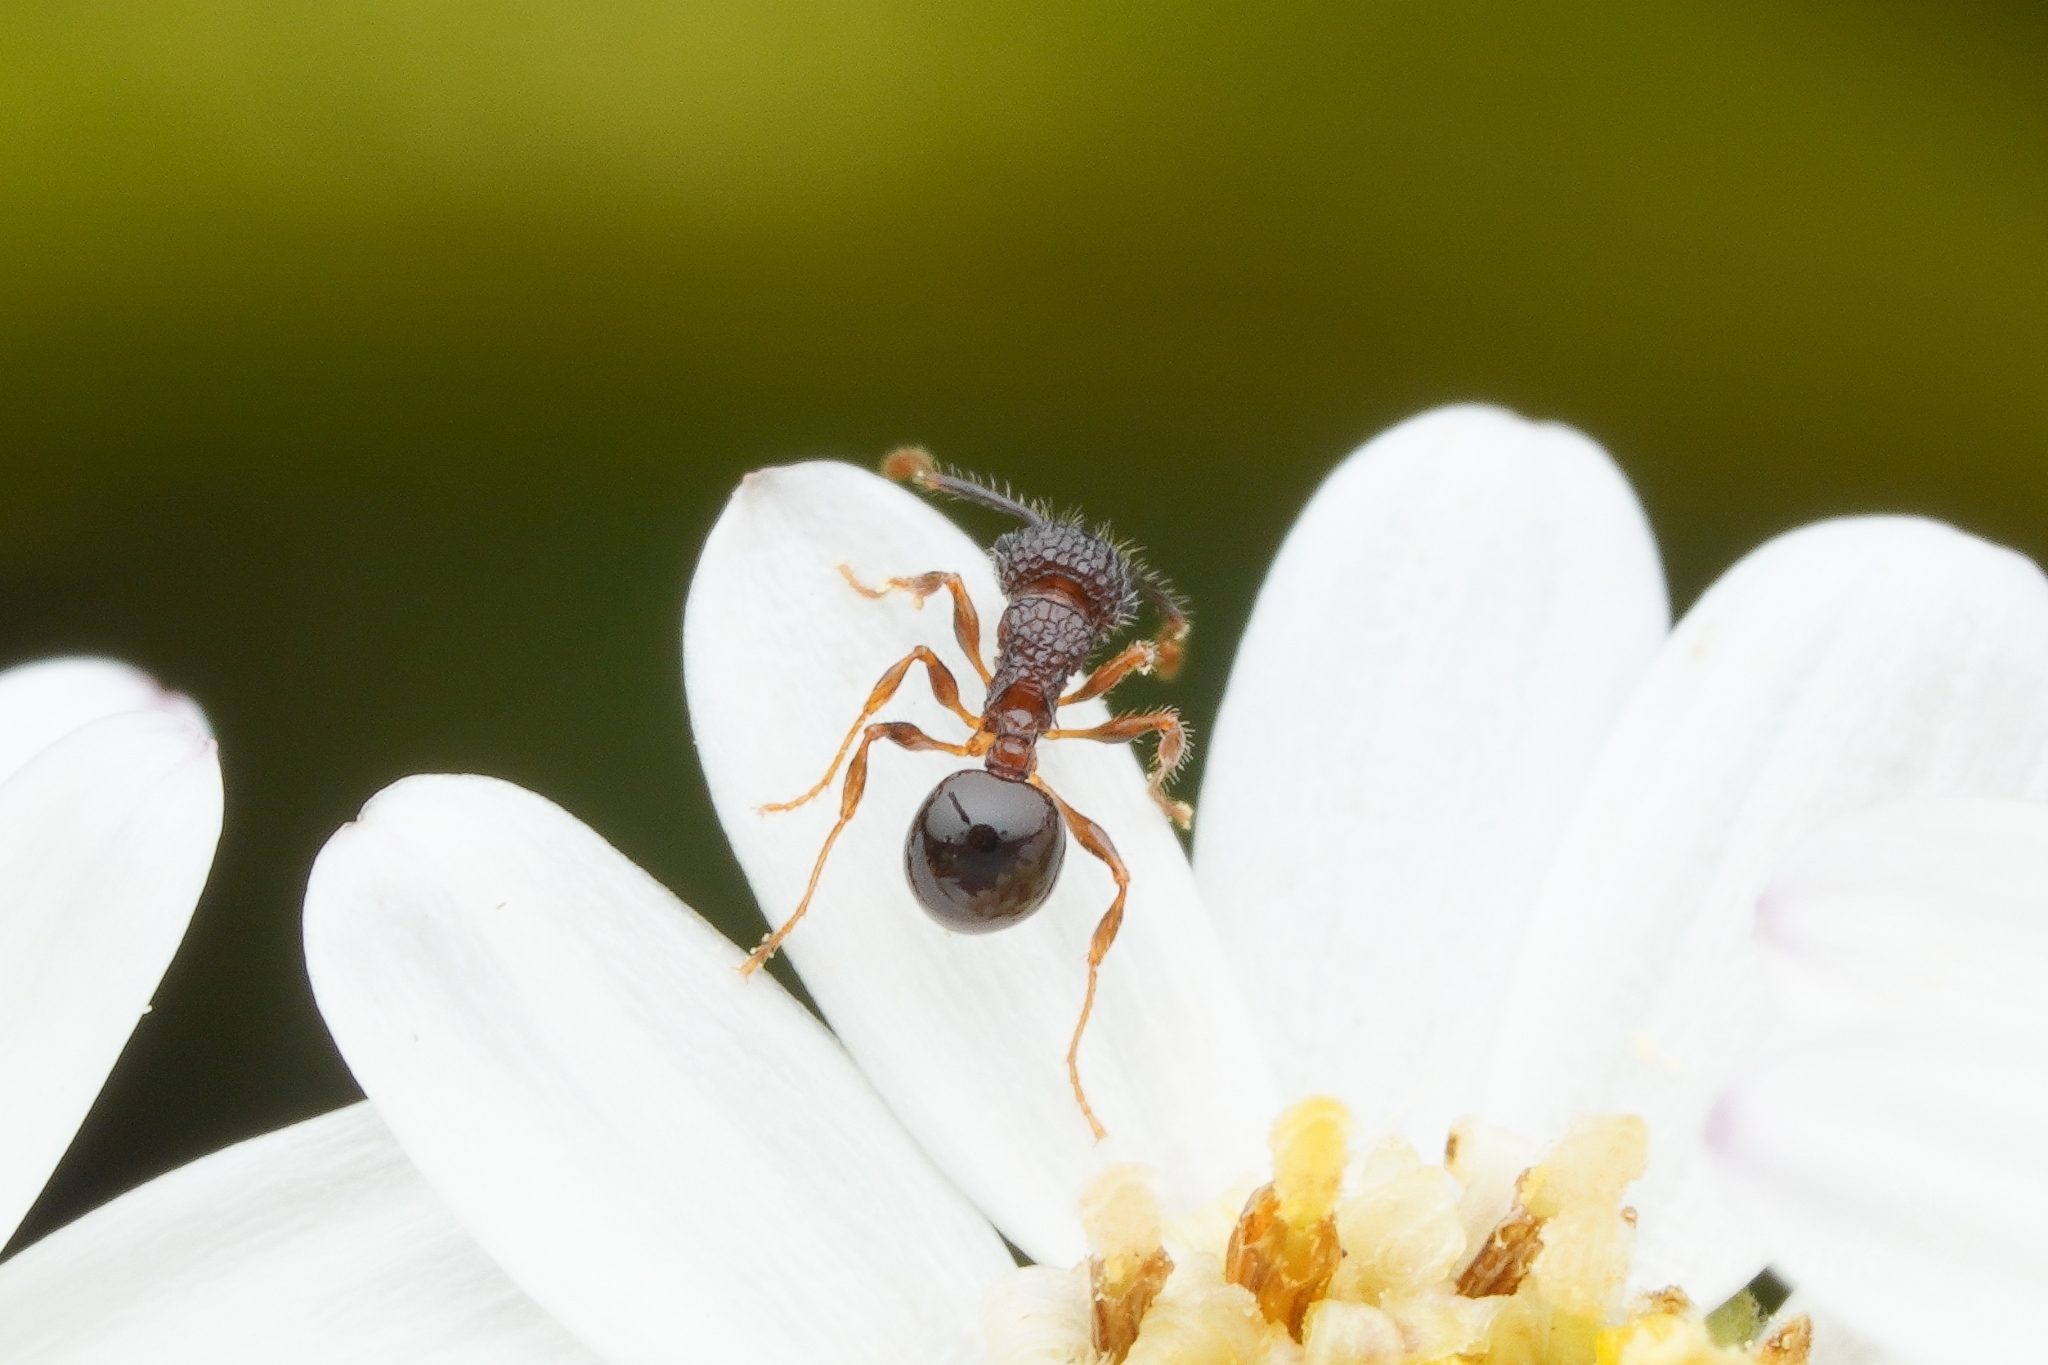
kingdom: Animalia
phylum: Arthropoda
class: Insecta
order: Hymenoptera
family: Formicidae
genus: Pristomyrmex
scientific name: Pristomyrmex punctatus
